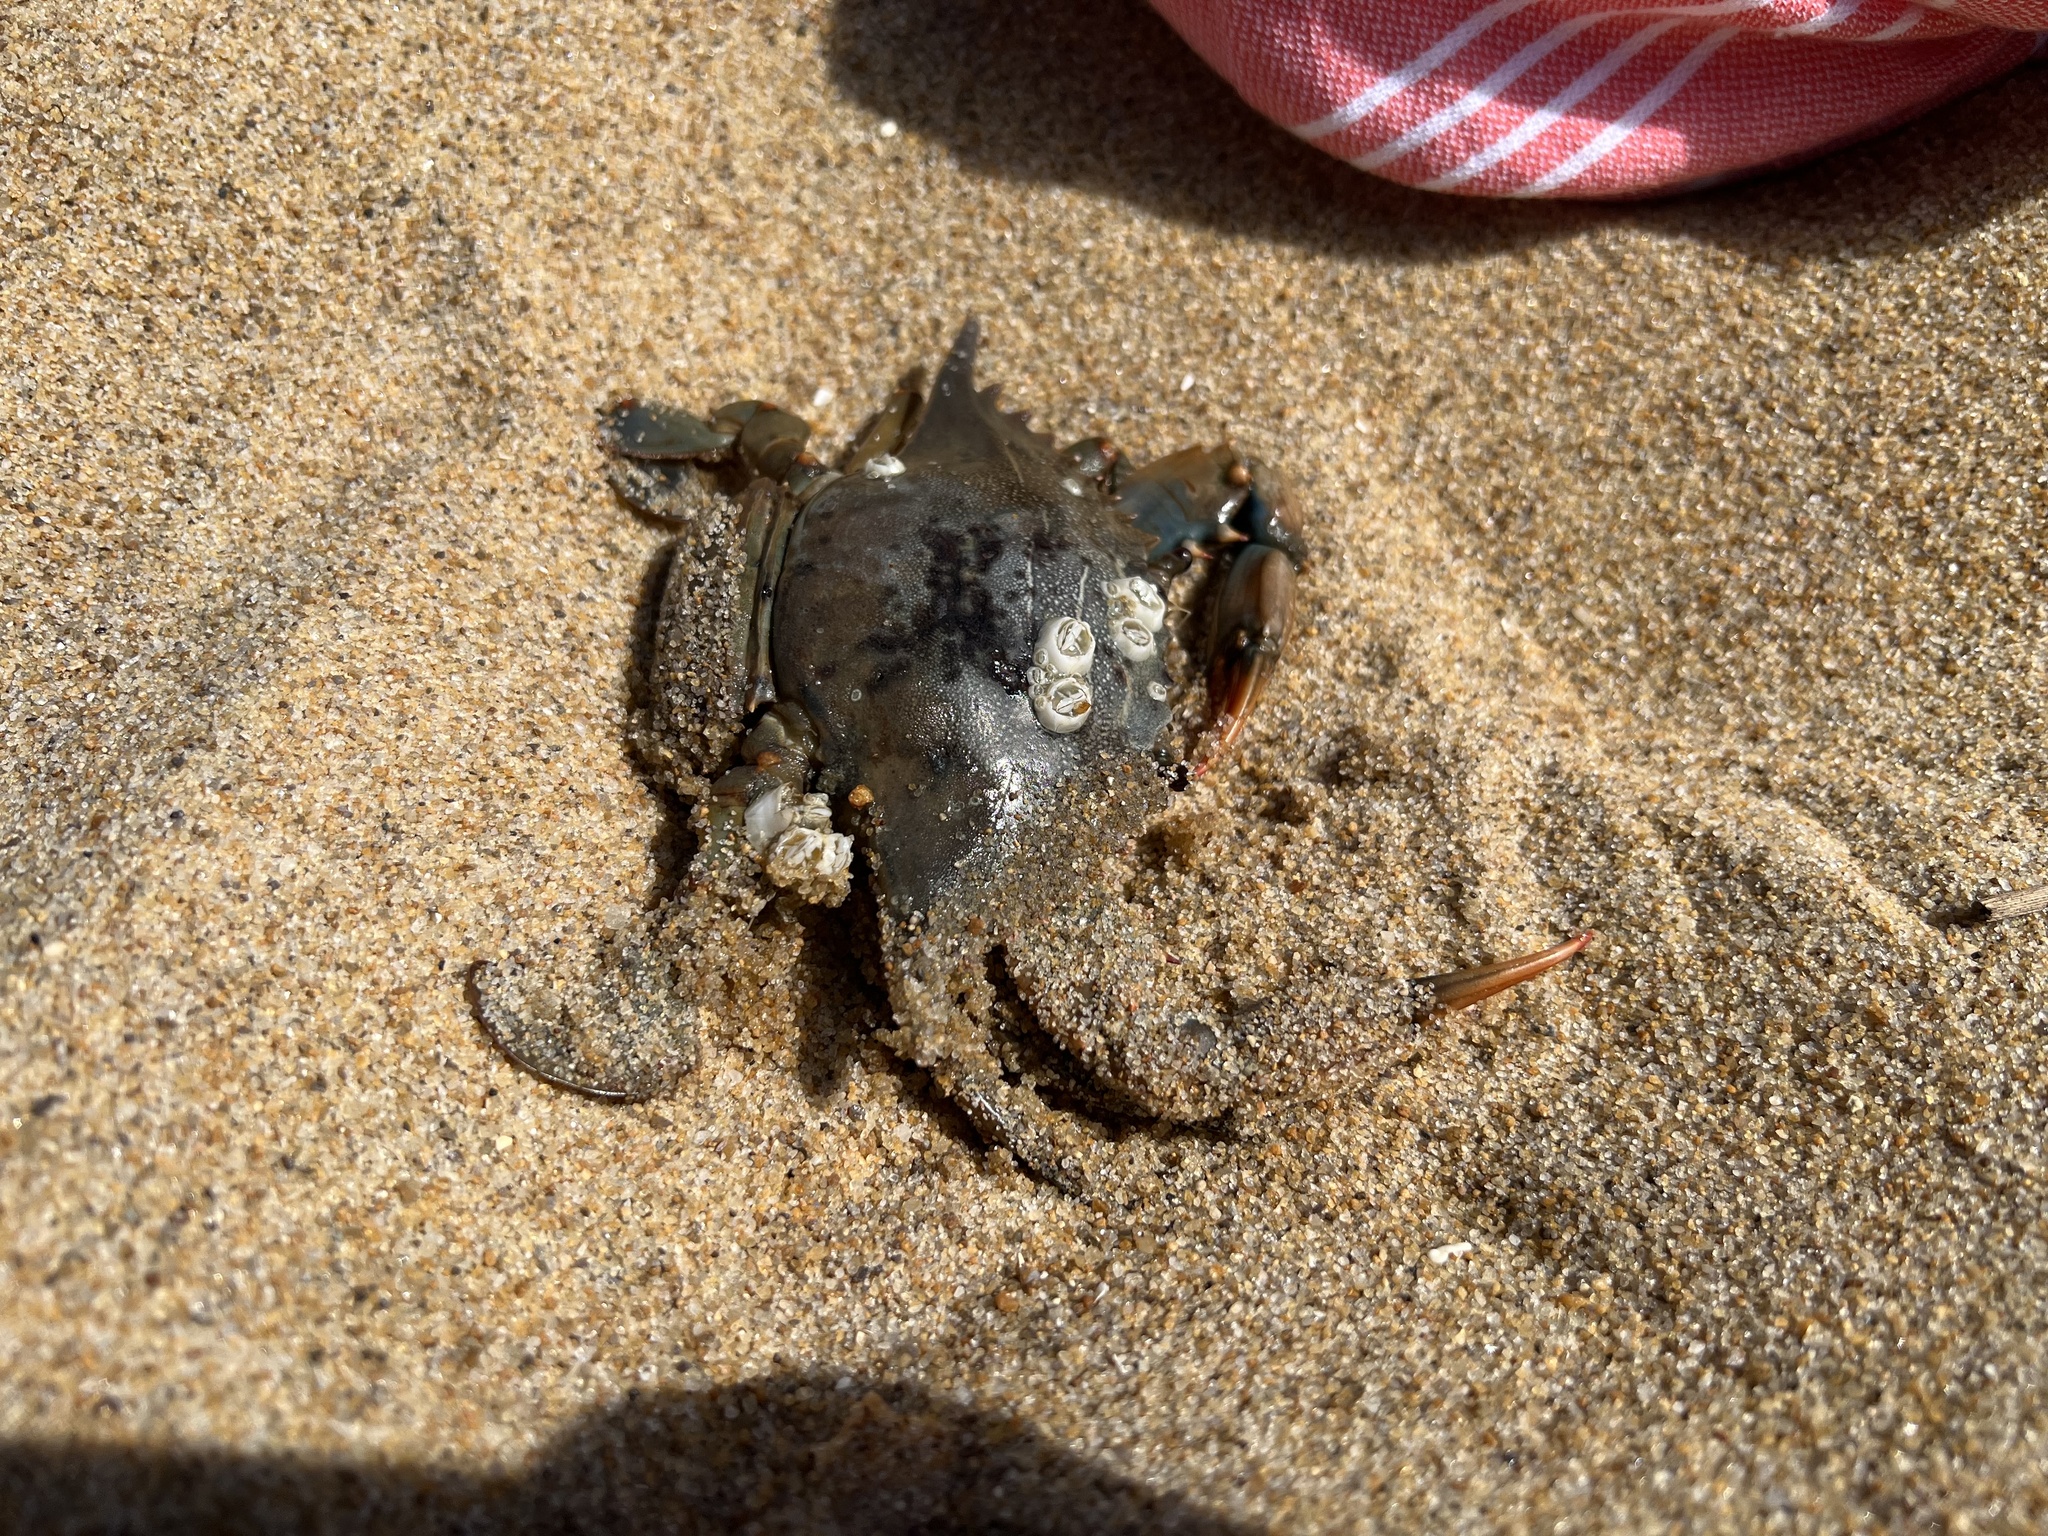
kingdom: Animalia
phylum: Arthropoda
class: Malacostraca
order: Decapoda
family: Portunidae
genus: Callinectes
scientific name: Callinectes sapidus
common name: Blue crab
